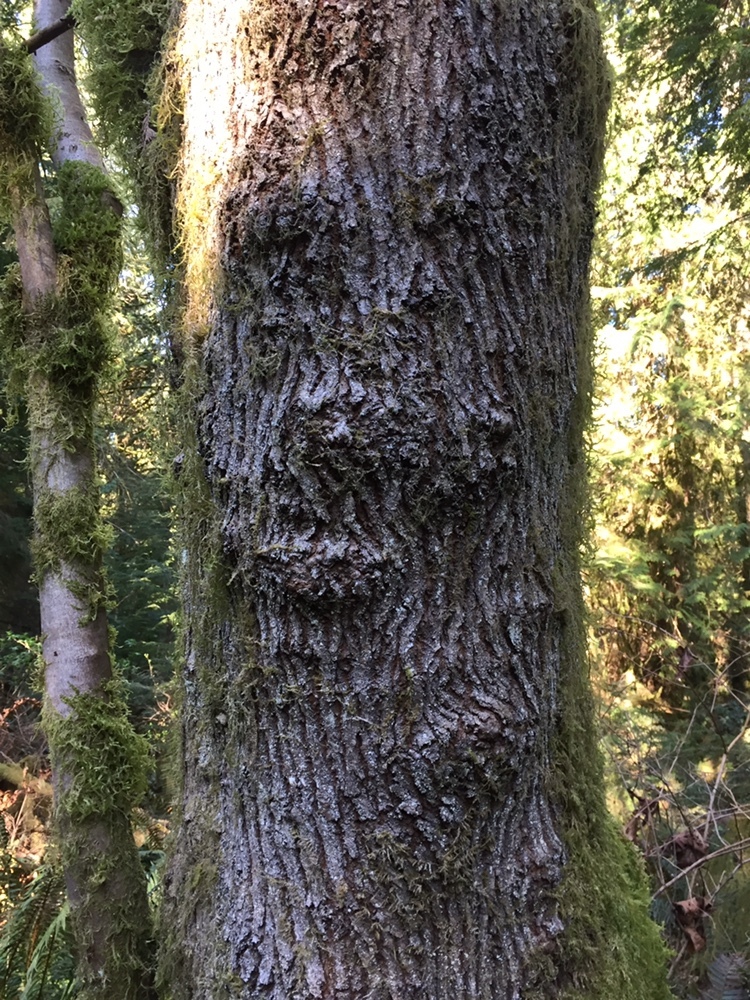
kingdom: Plantae
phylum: Tracheophyta
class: Magnoliopsida
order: Sapindales
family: Sapindaceae
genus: Acer
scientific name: Acer macrophyllum
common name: Oregon maple
